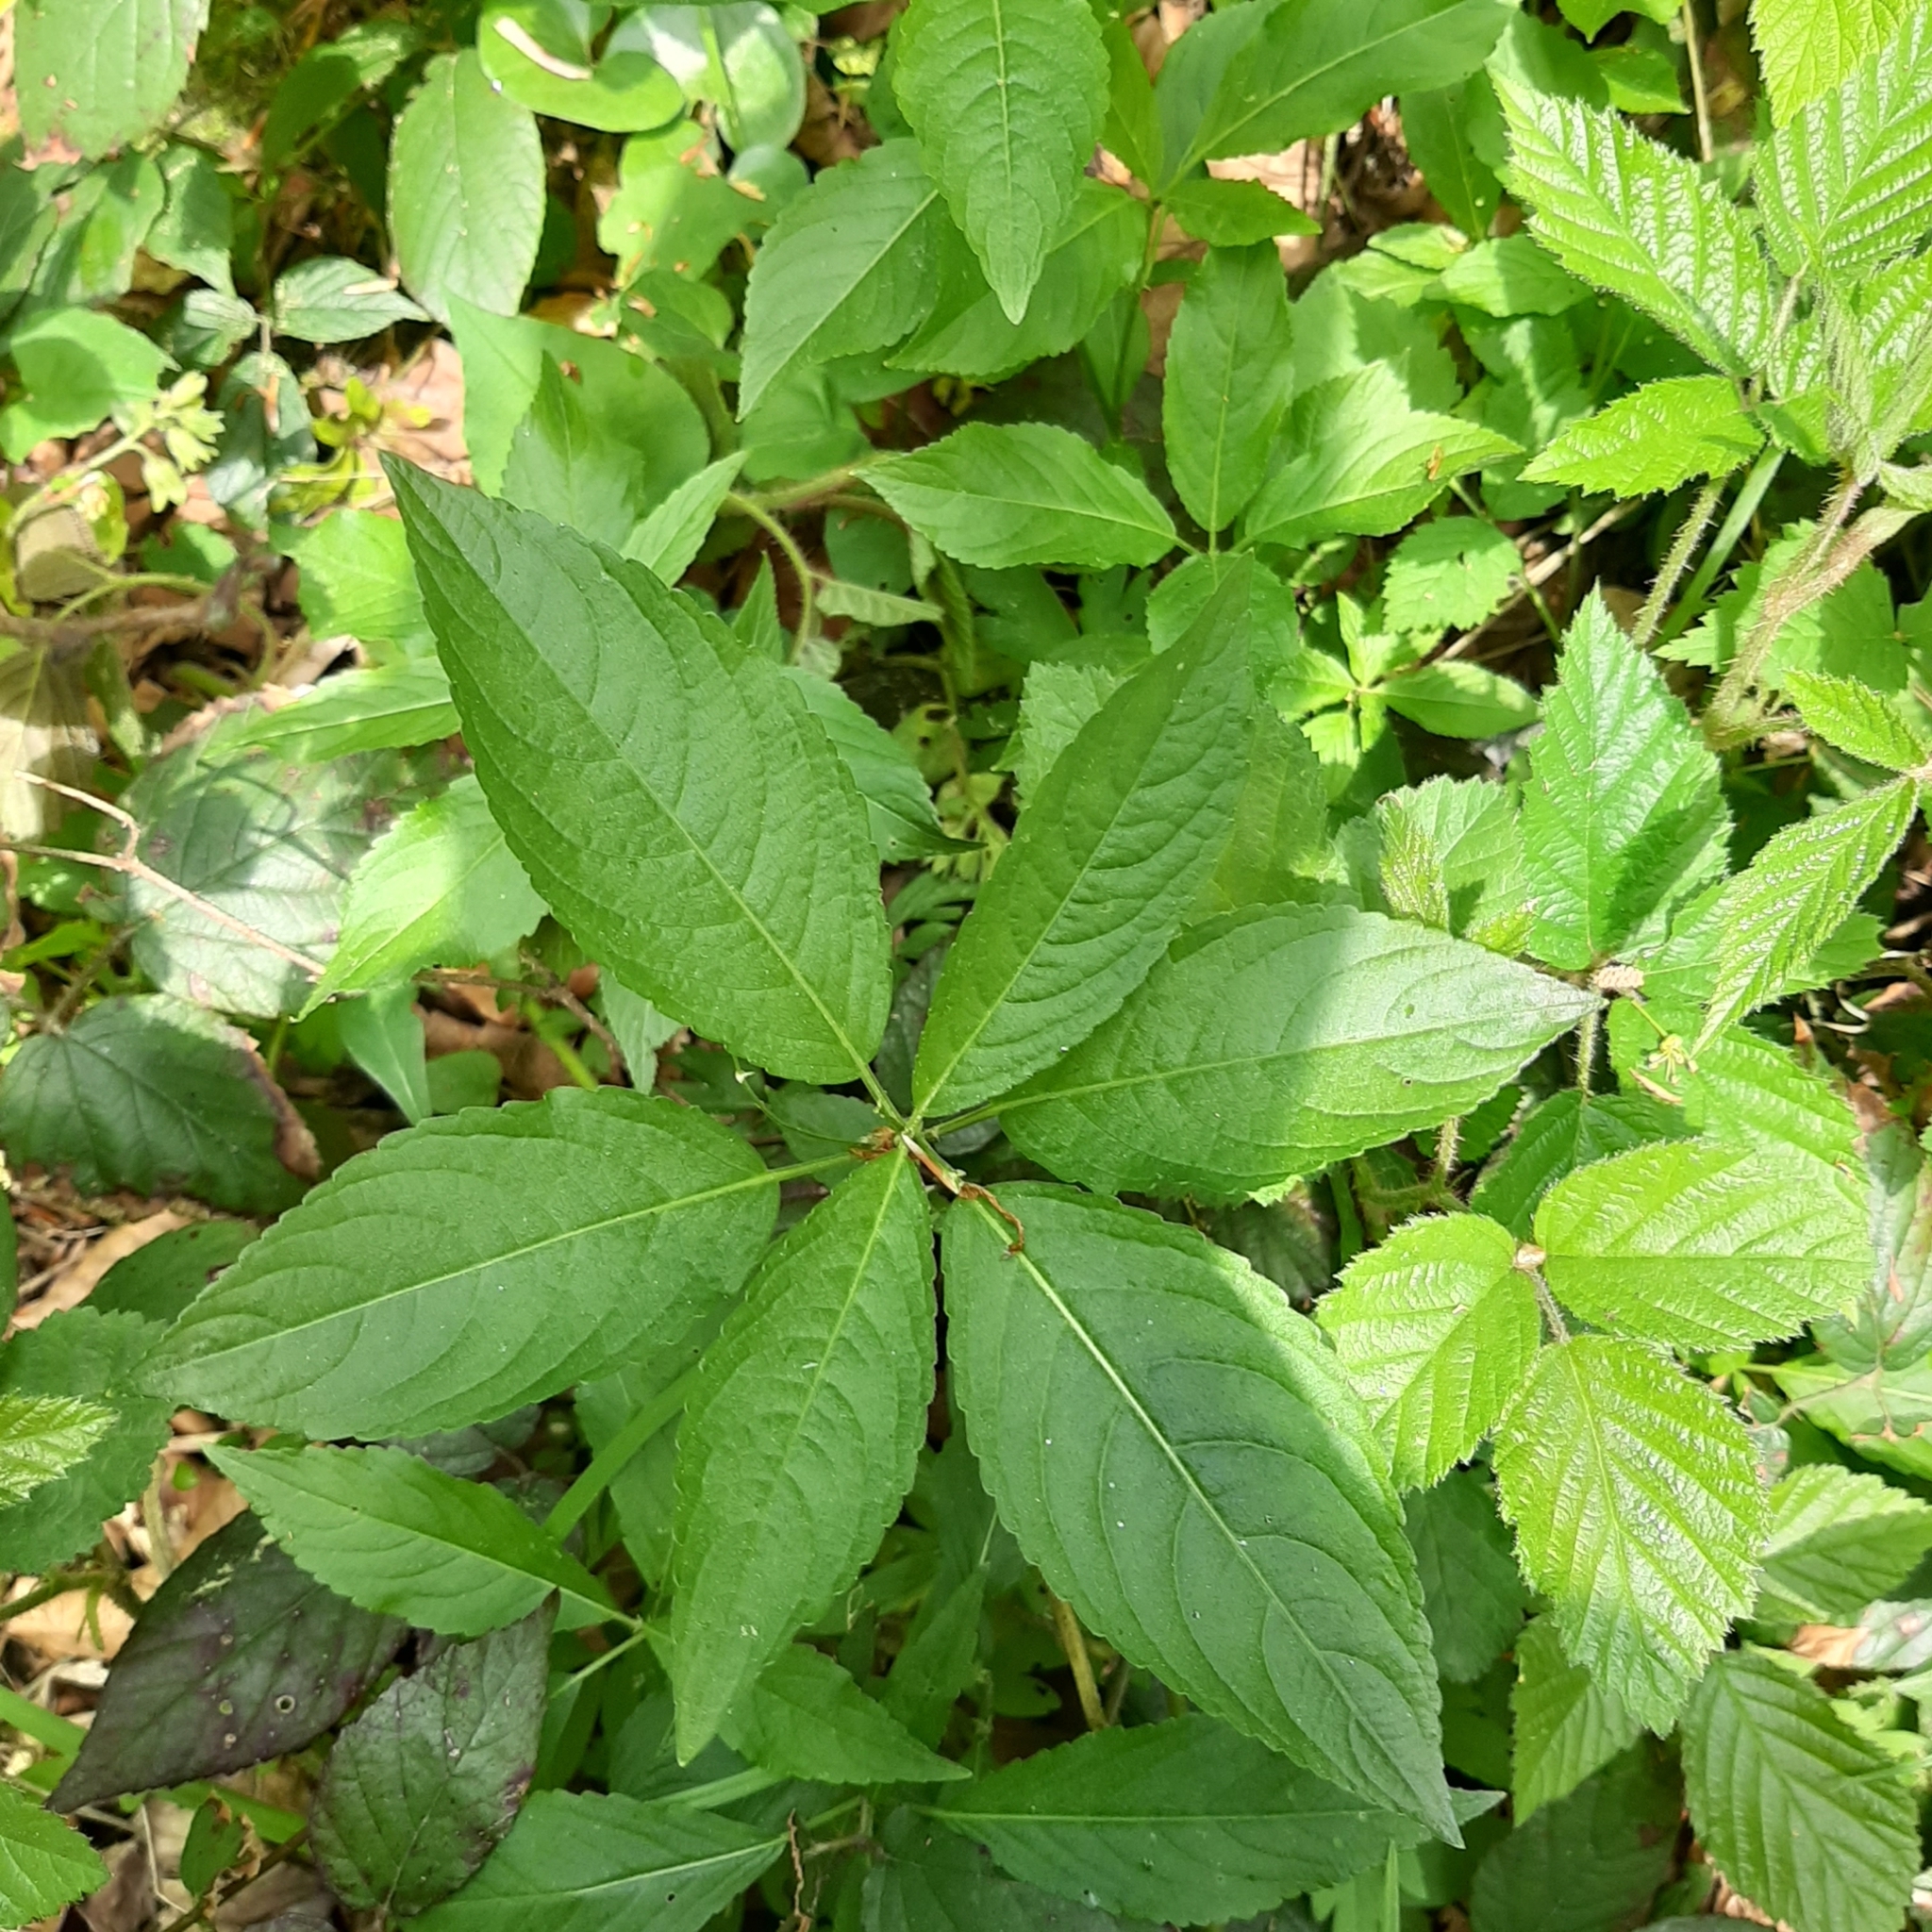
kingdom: Plantae
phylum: Tracheophyta
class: Magnoliopsida
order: Malpighiales
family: Euphorbiaceae
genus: Mercurialis
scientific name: Mercurialis perennis
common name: Dog mercury
